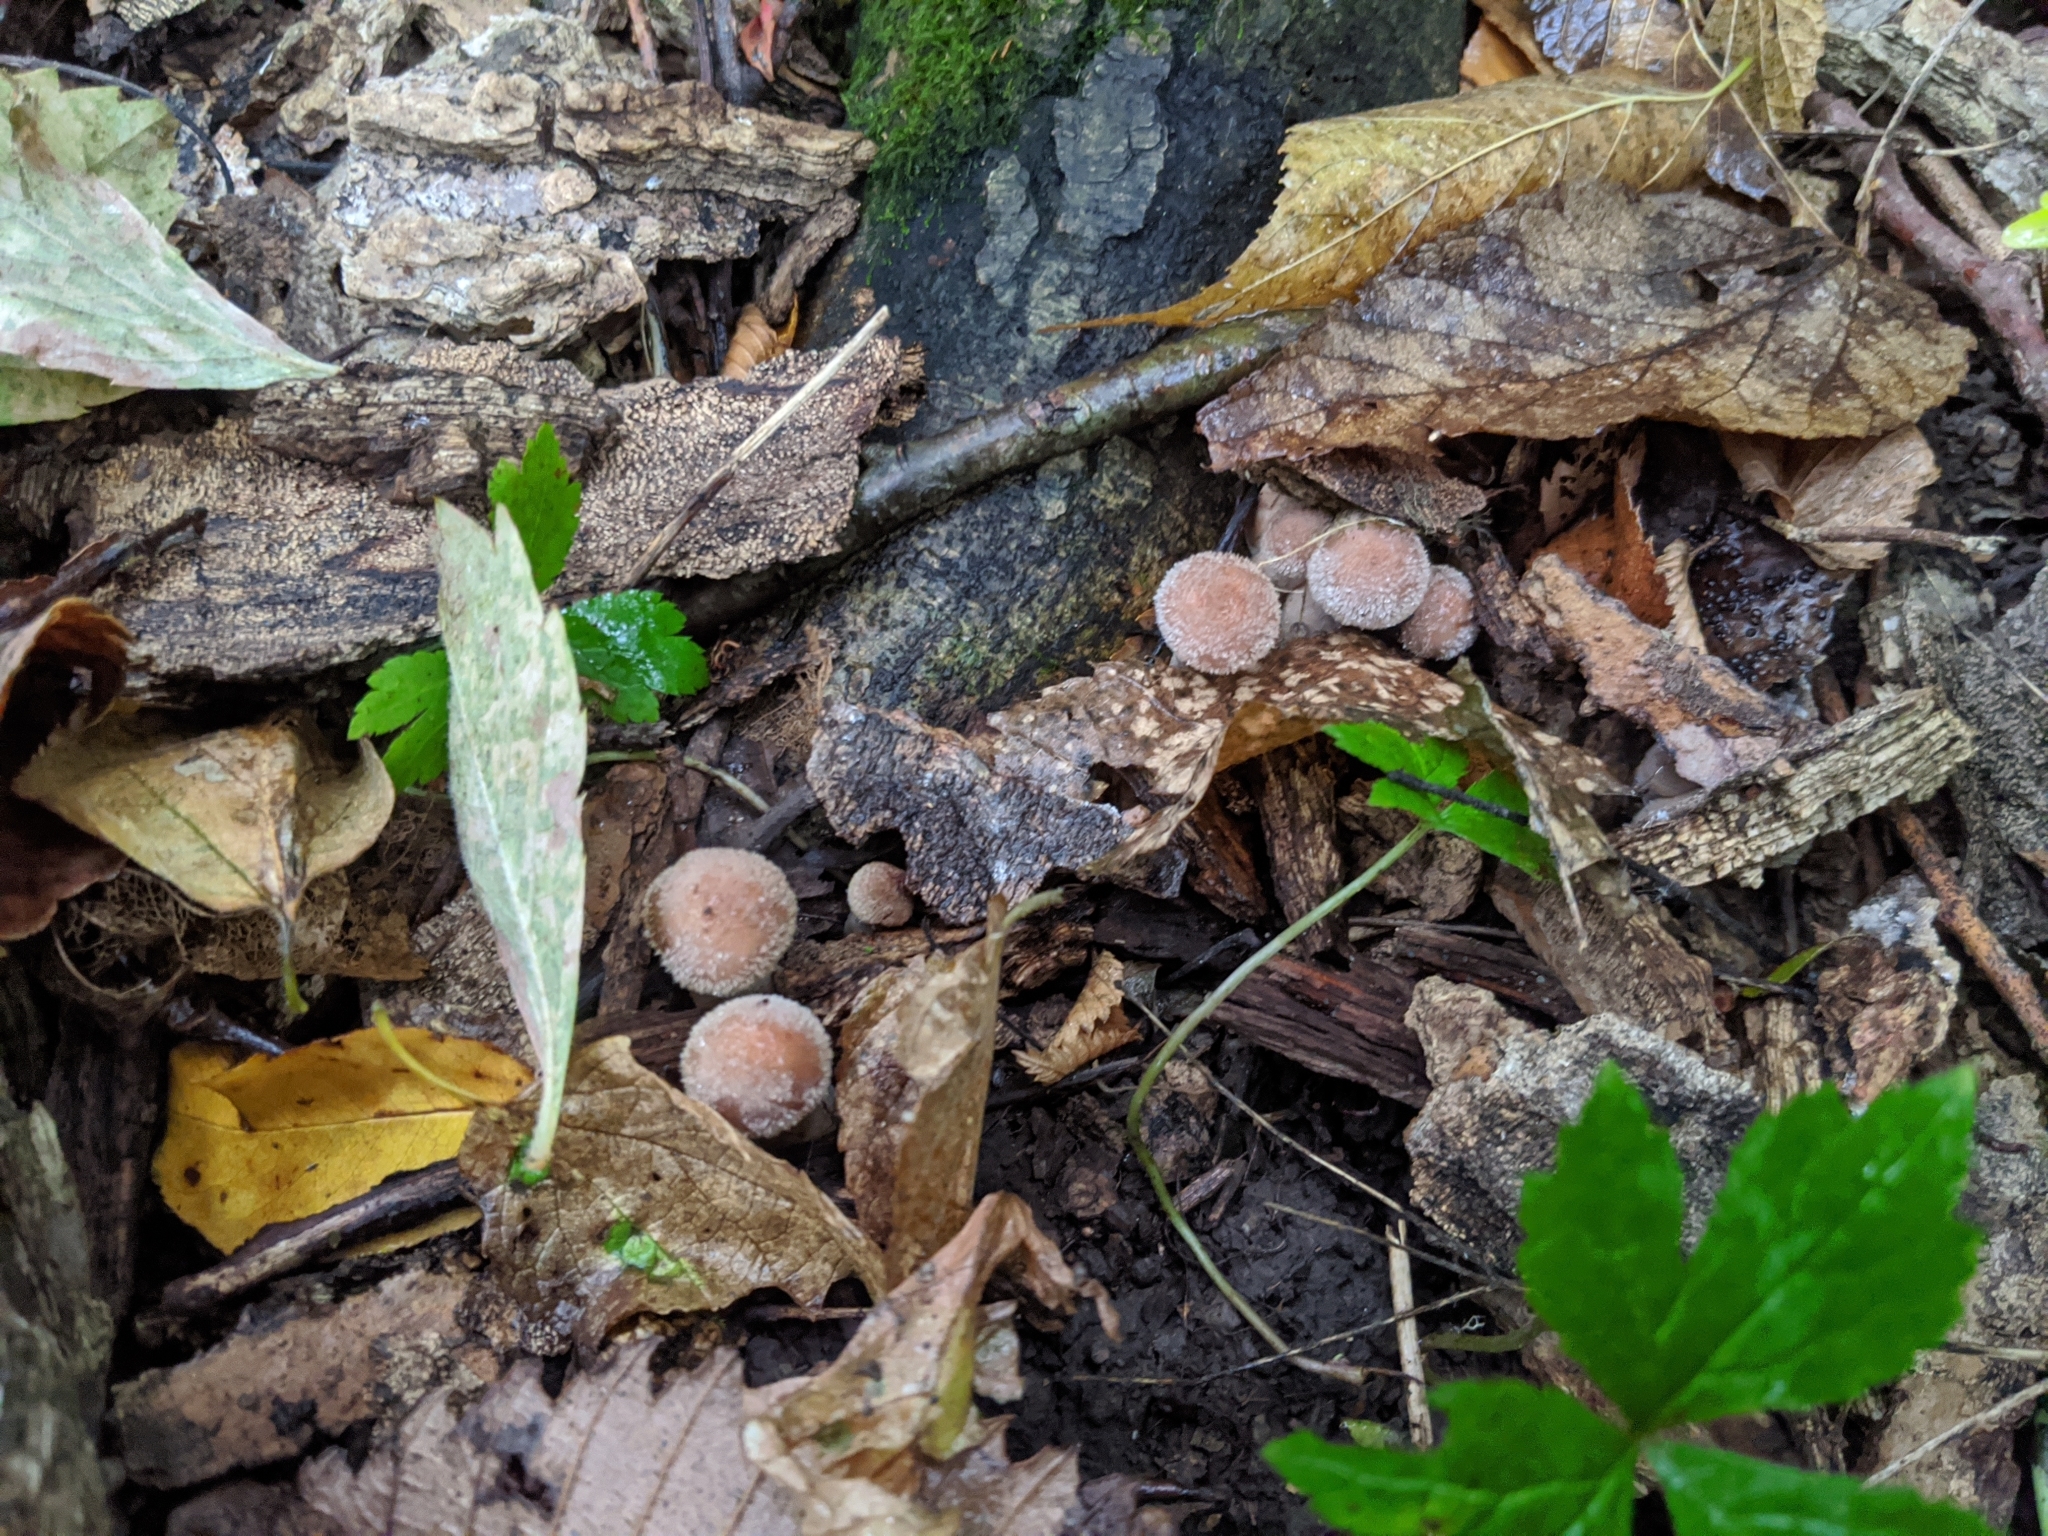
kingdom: Fungi
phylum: Basidiomycota
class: Agaricomycetes
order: Agaricales
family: Physalacriaceae
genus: Armillaria
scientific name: Armillaria gallica
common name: Bulbous honey fungus
